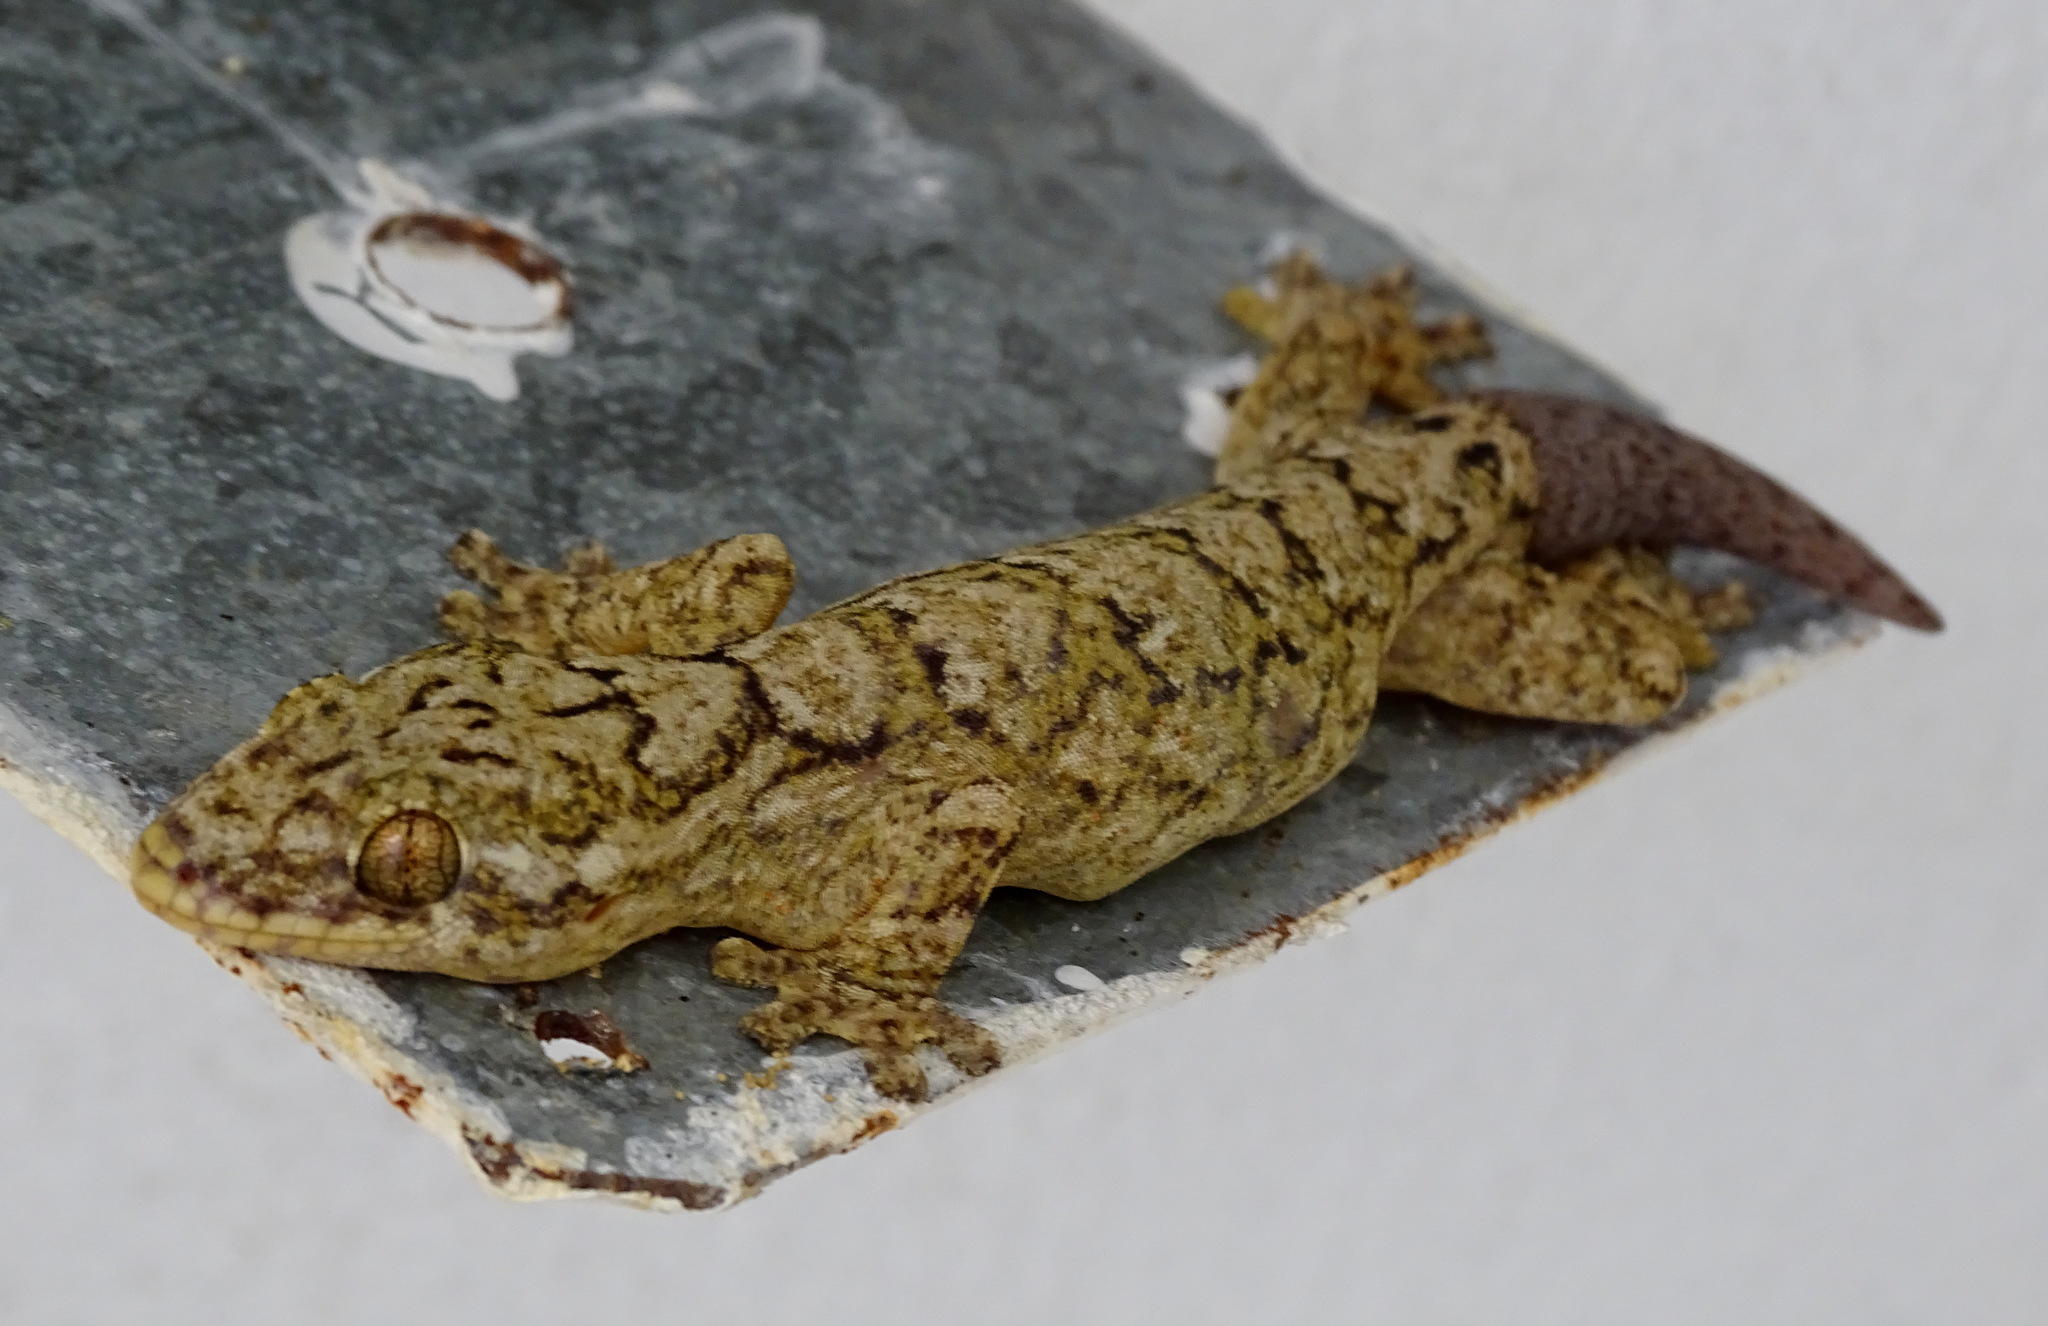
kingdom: Animalia
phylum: Chordata
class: Squamata
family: Phyllodactylidae
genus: Thecadactylus
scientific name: Thecadactylus rapicauda
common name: Turnip-tailed gecko
